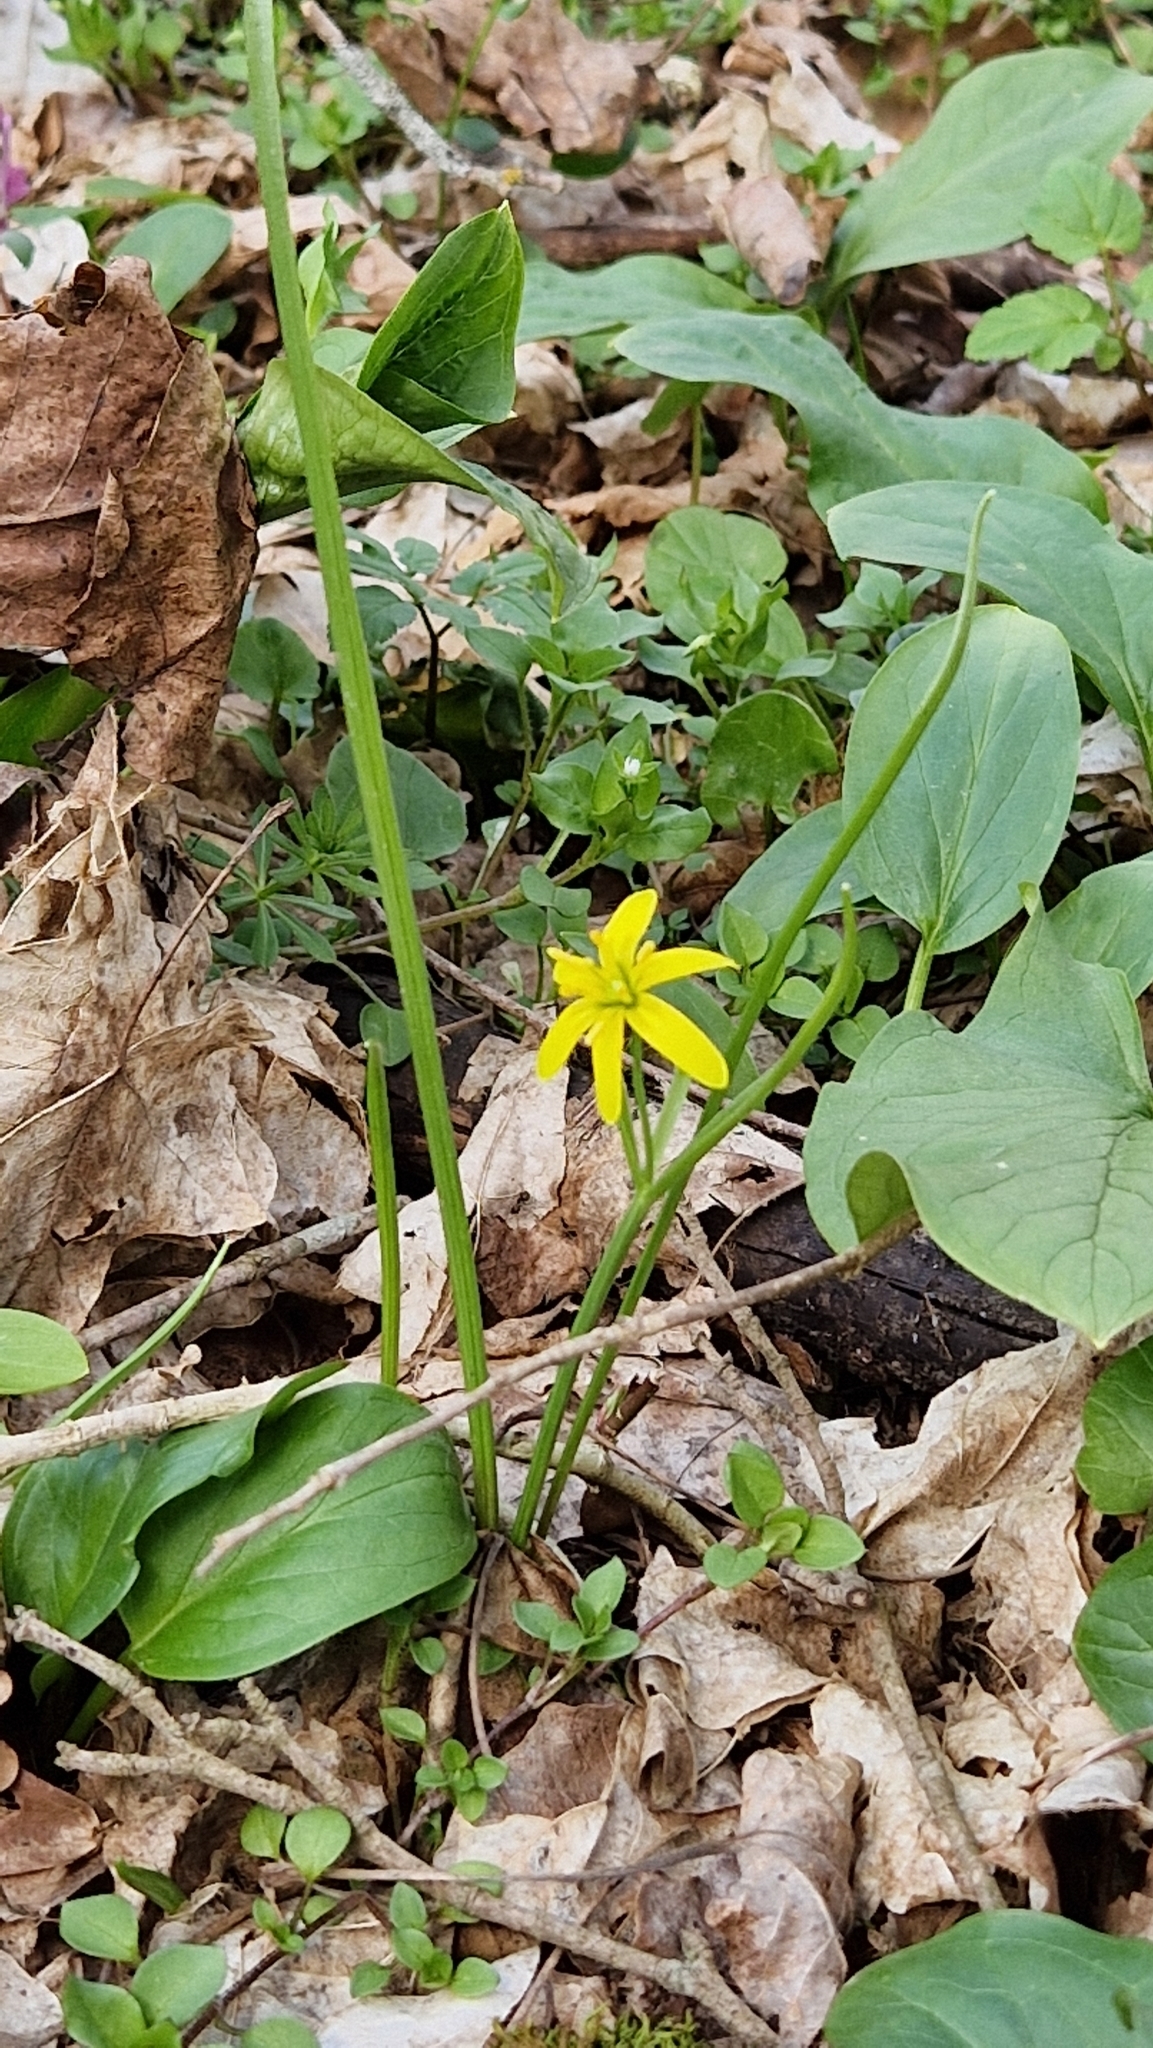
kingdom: Plantae
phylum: Tracheophyta
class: Liliopsida
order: Liliales
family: Liliaceae
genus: Gagea
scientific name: Gagea lutea
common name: Yellow star-of-bethlehem
